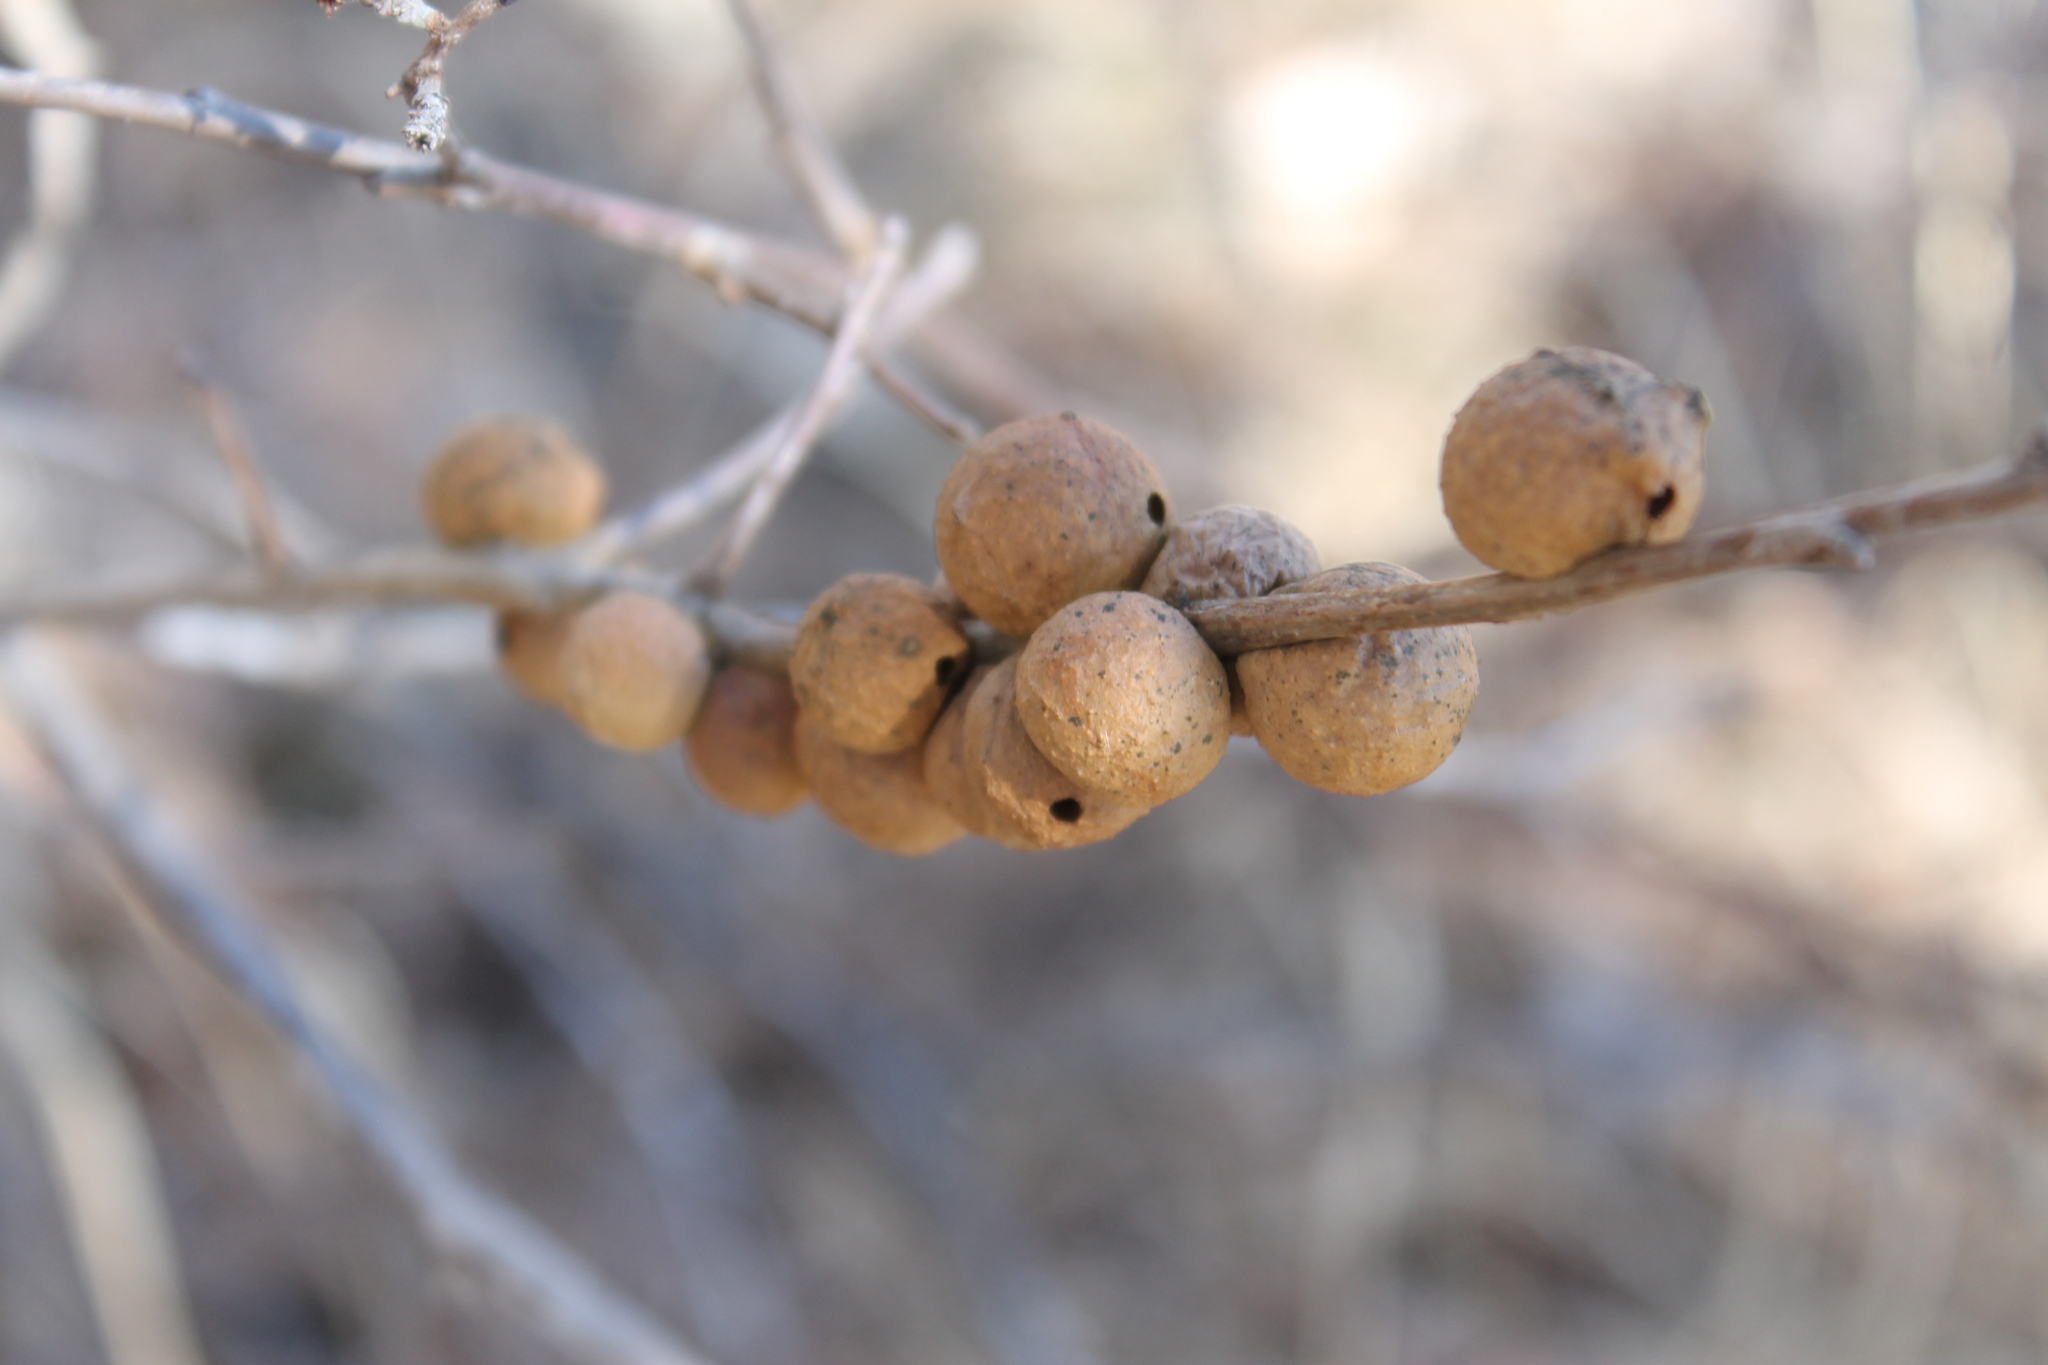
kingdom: Animalia
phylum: Arthropoda
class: Insecta
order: Hymenoptera
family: Cynipidae
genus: Disholcaspis
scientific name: Disholcaspis quercusglobulus
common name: Round bullet gall wasp
